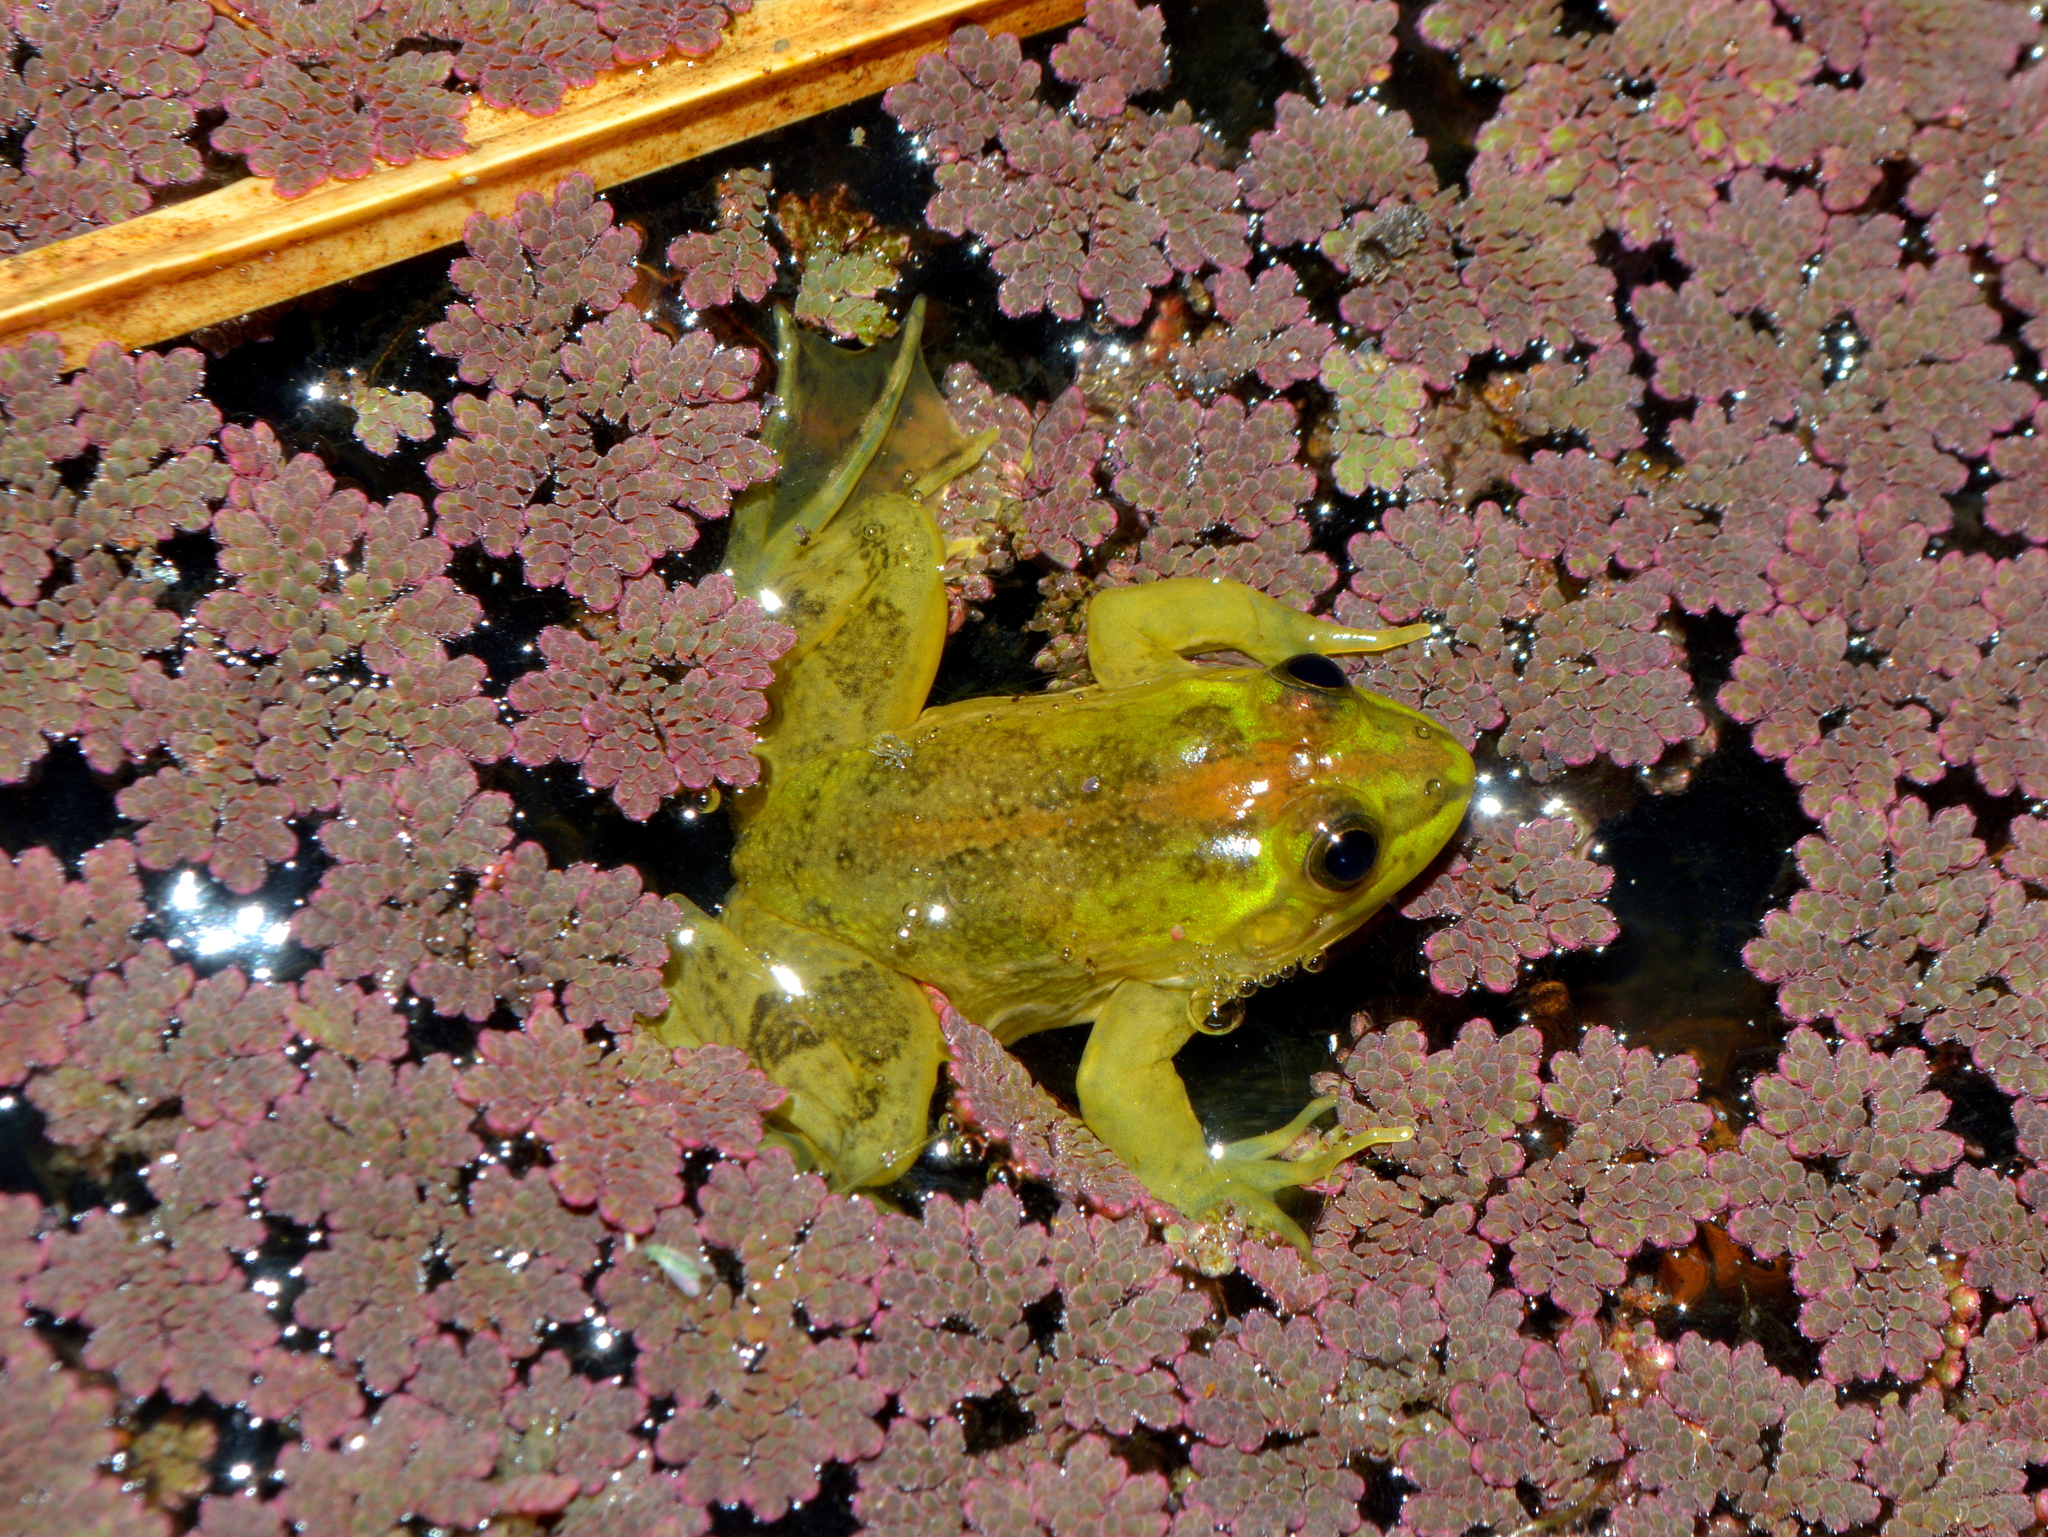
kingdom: Animalia
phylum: Chordata
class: Amphibia
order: Anura
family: Hylidae
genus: Pseudis
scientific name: Pseudis minuta
